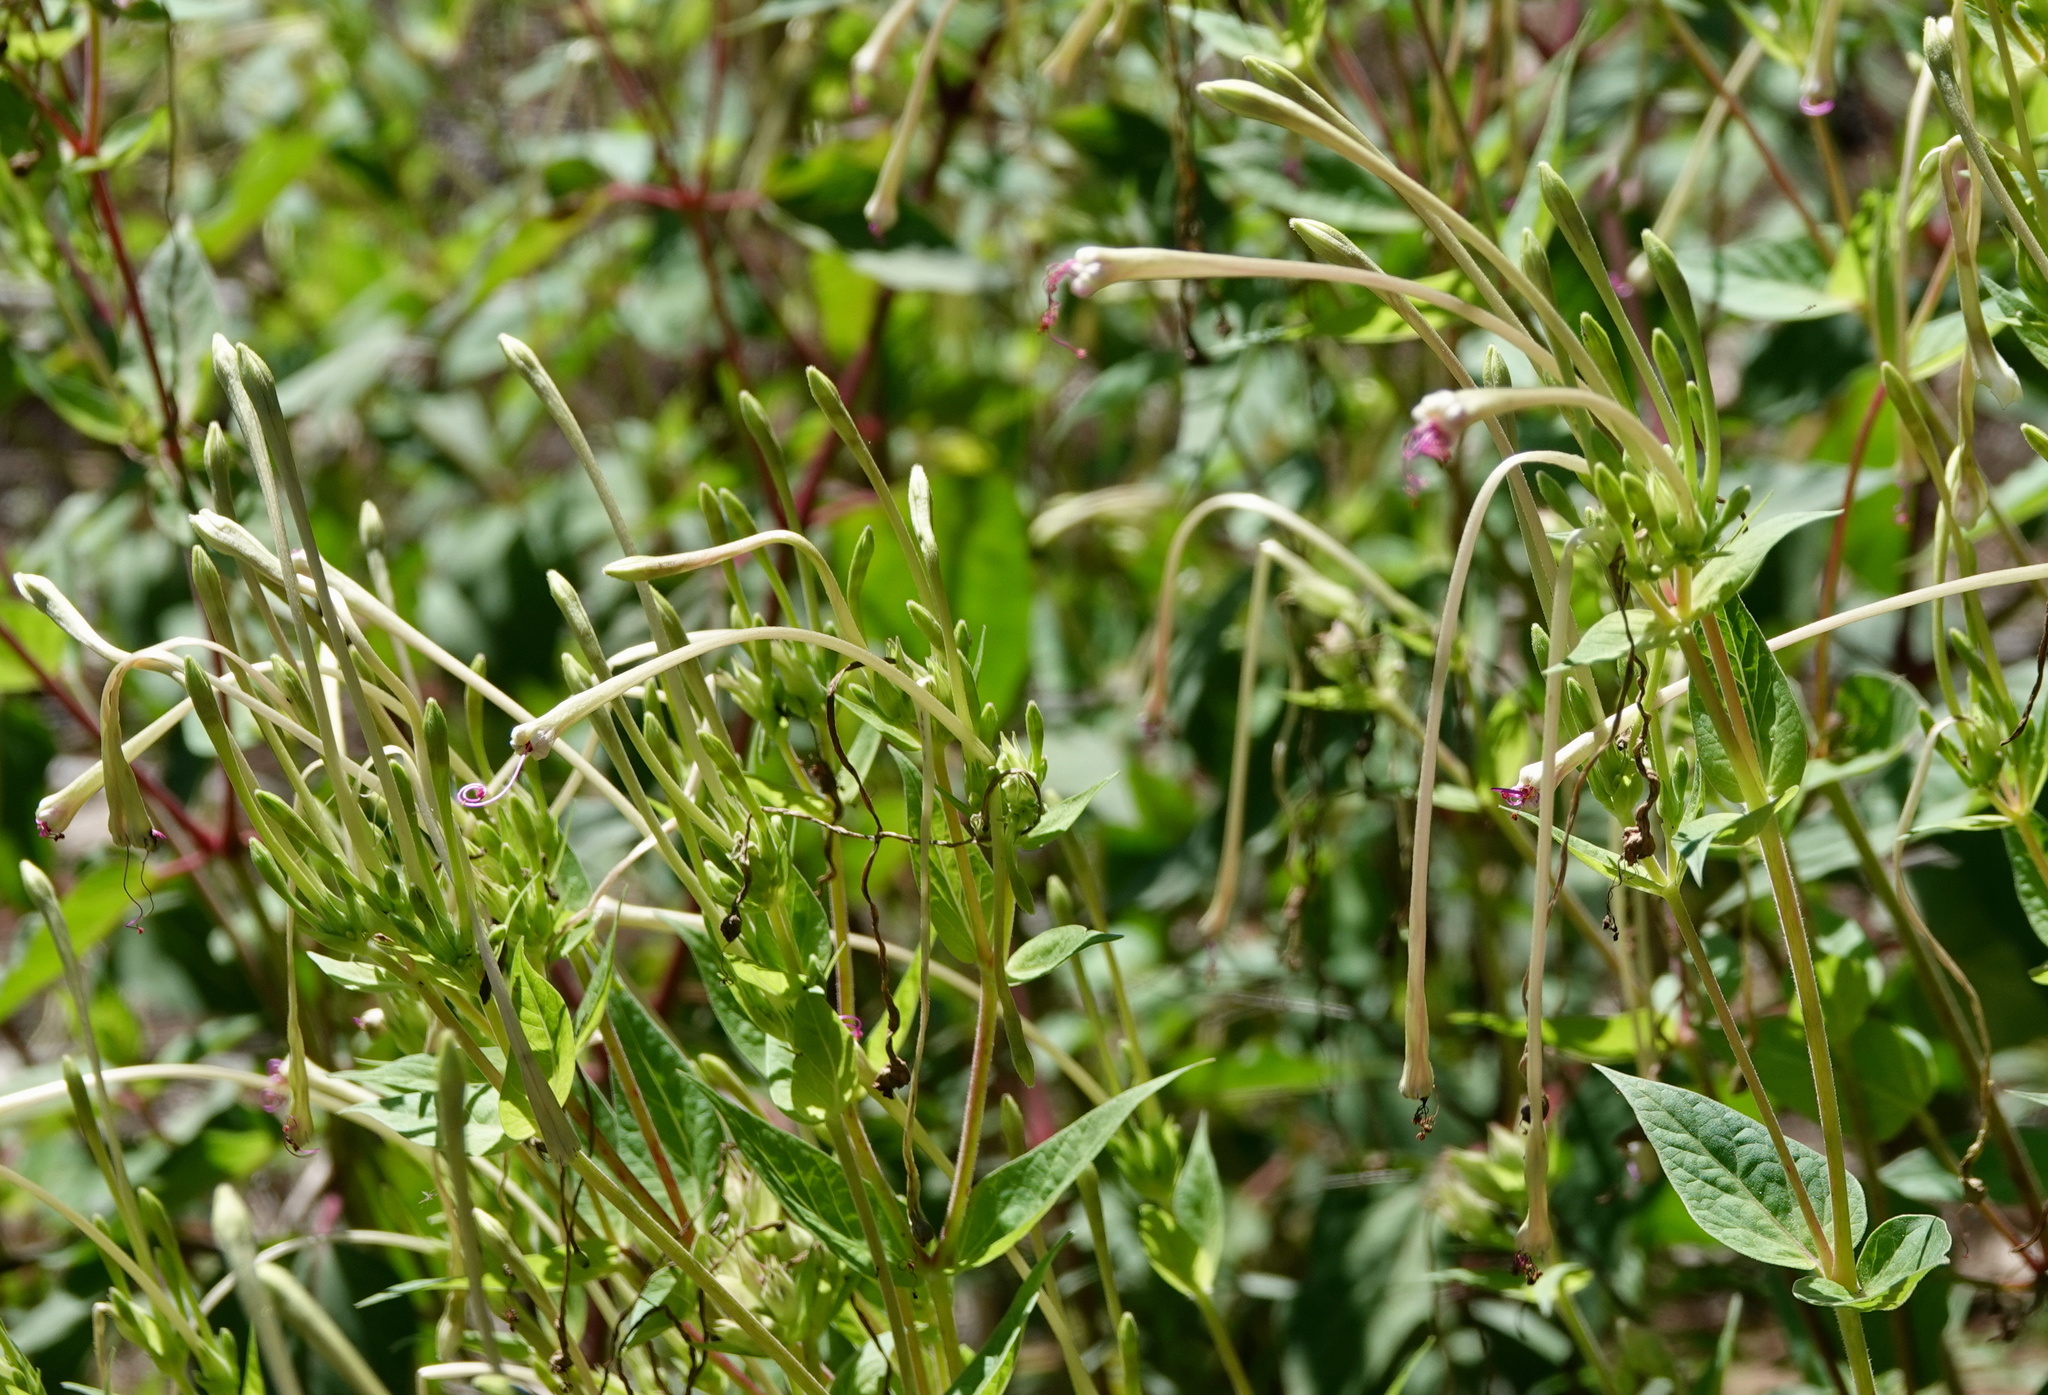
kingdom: Plantae
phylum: Tracheophyta
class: Magnoliopsida
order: Caryophyllales
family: Nyctaginaceae
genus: Mirabilis
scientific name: Mirabilis longiflora
